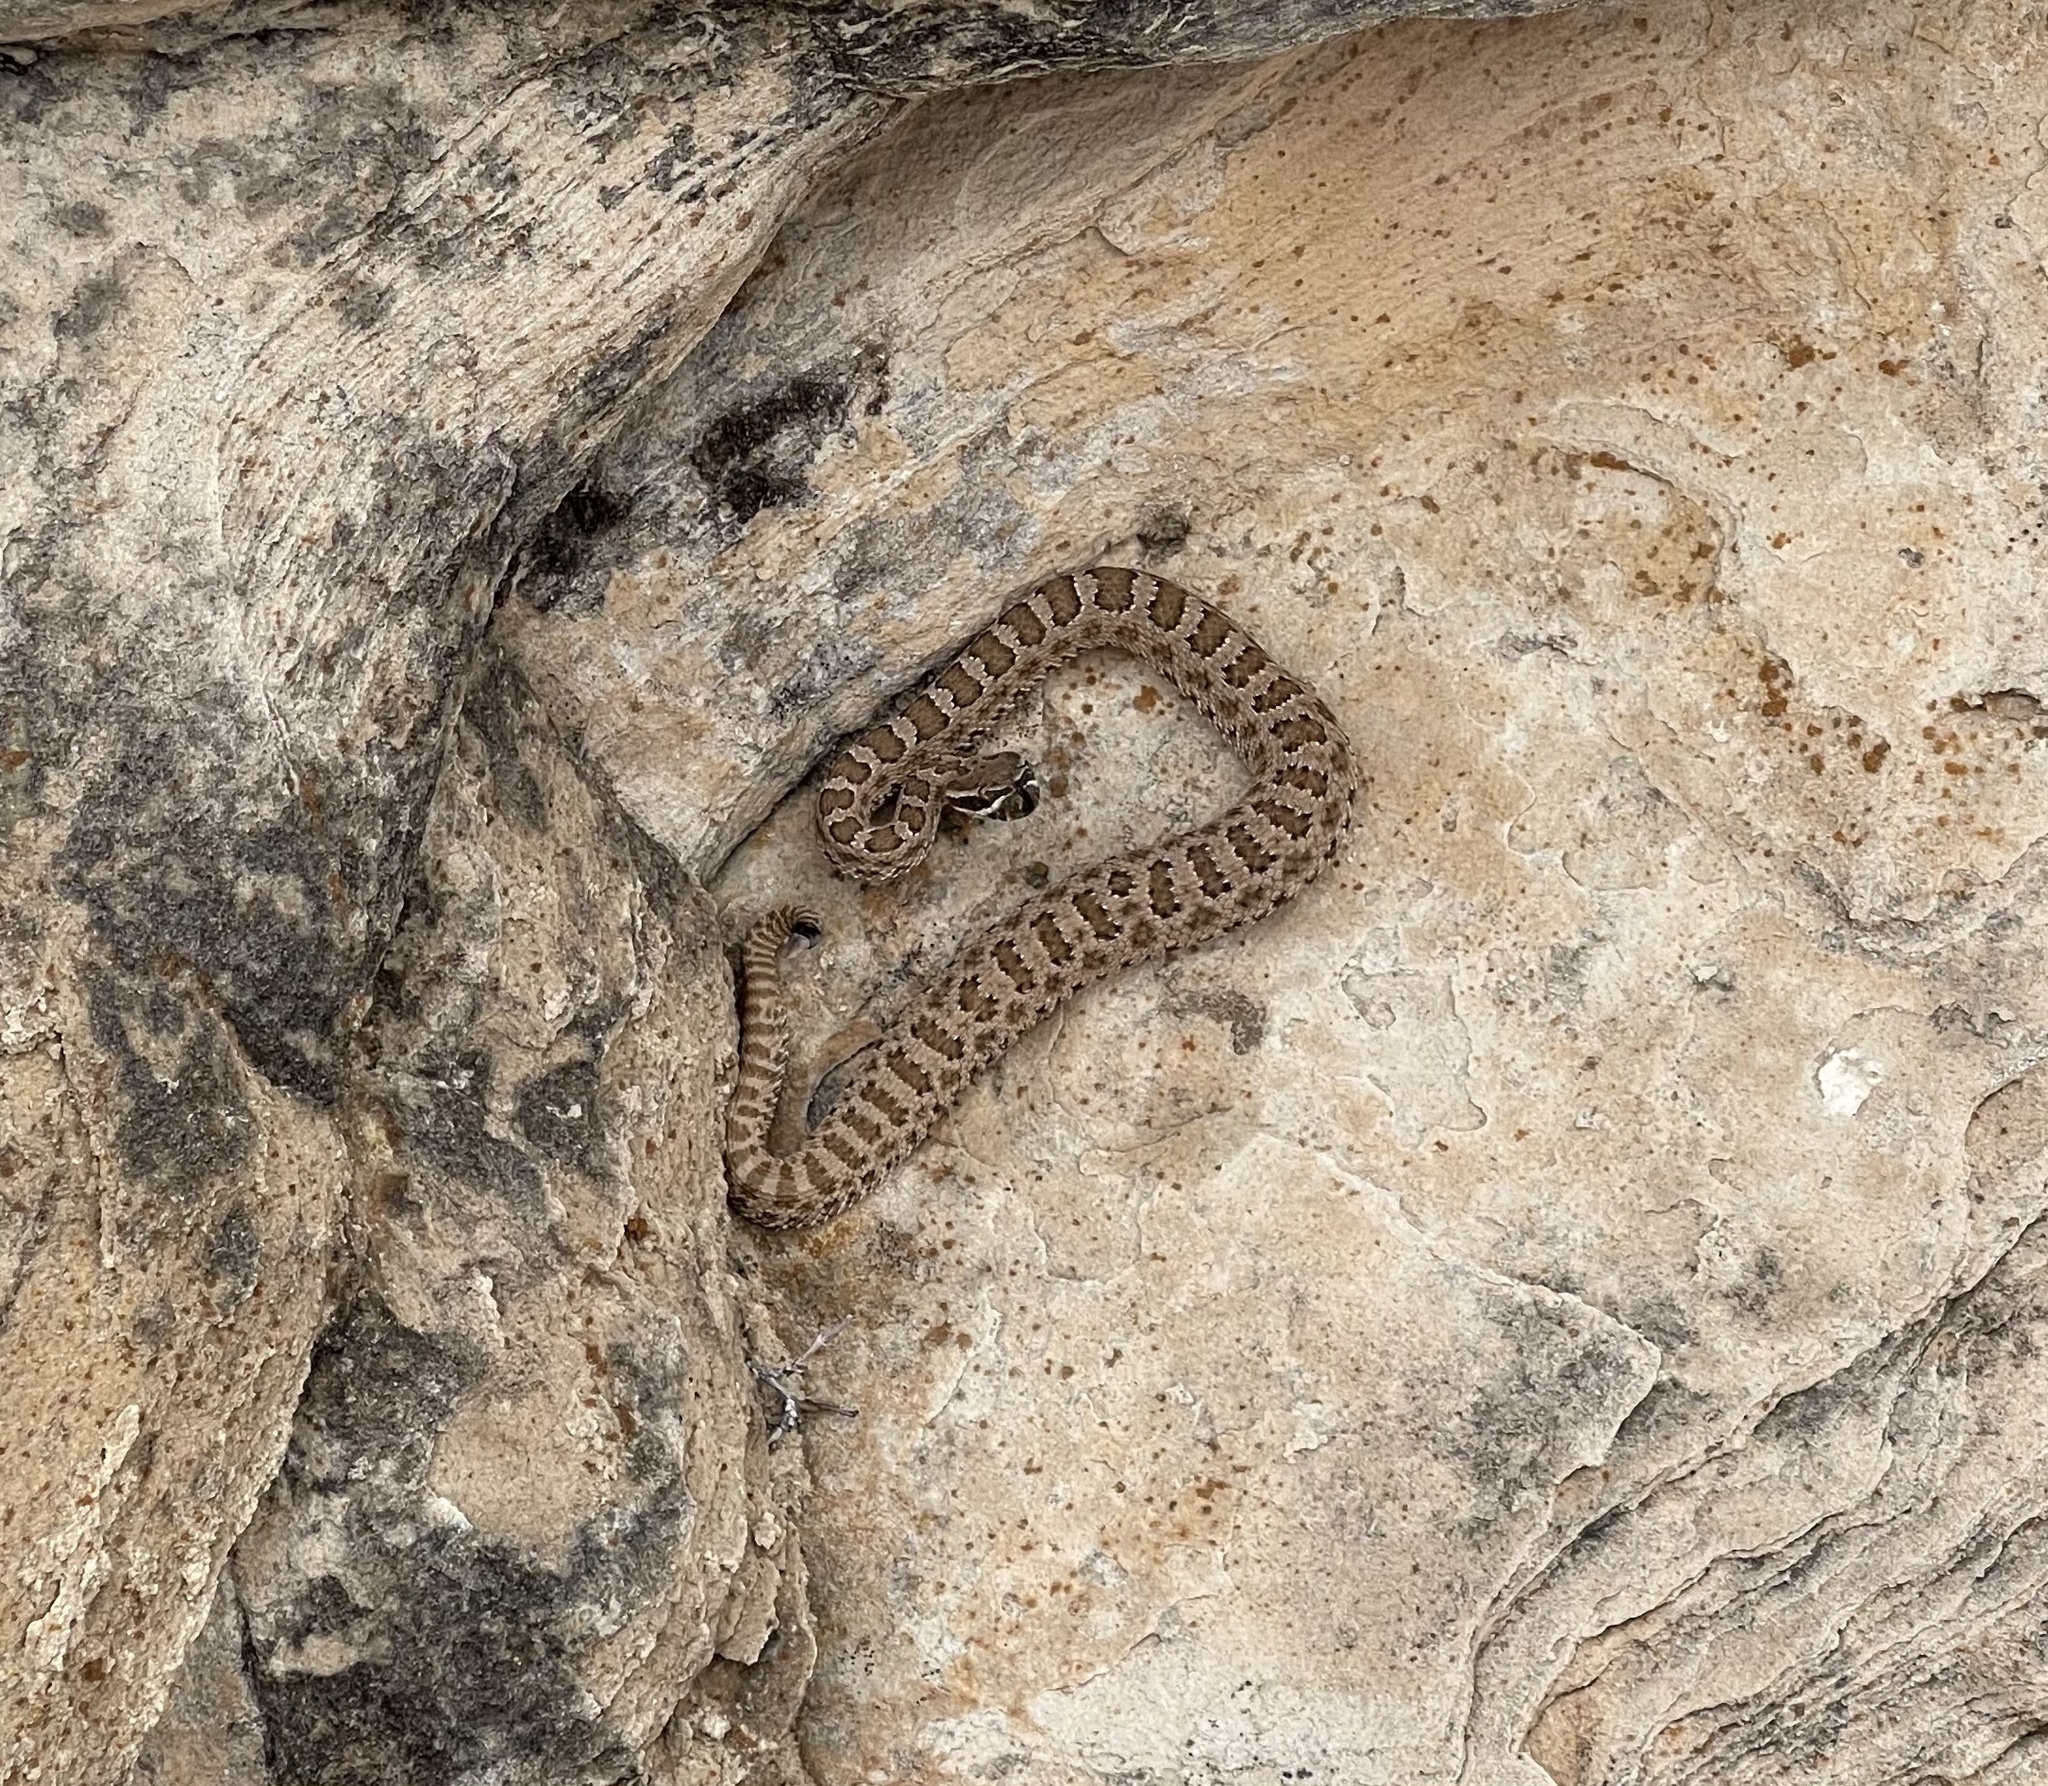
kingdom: Animalia
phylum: Chordata
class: Squamata
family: Viperidae
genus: Crotalus
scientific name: Crotalus viridis
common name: Prairie rattlesnake
